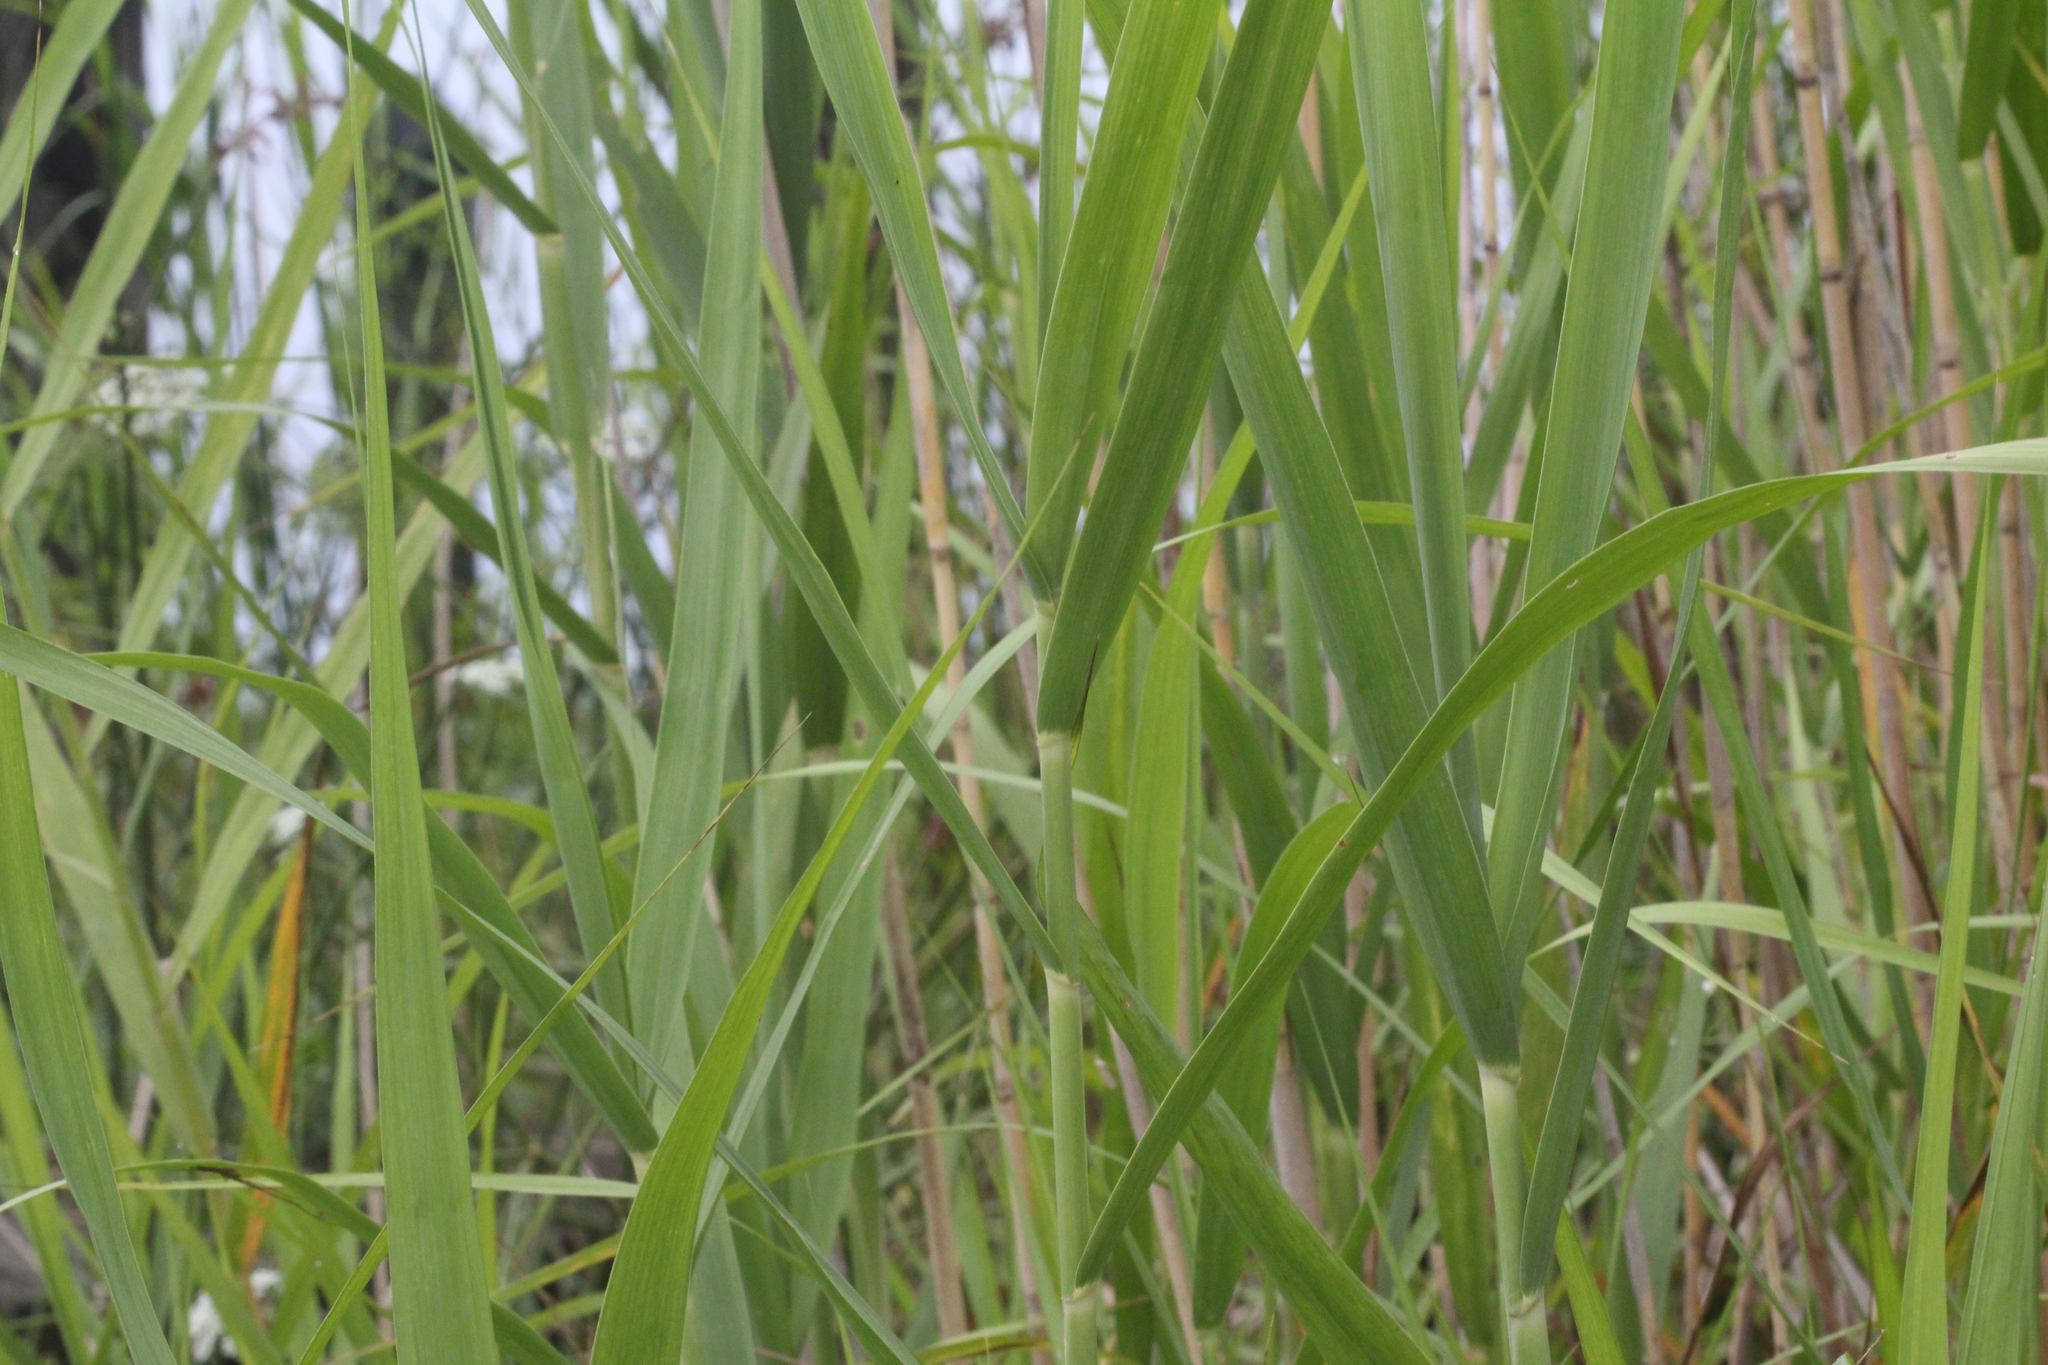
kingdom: Plantae
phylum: Tracheophyta
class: Liliopsida
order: Poales
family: Poaceae
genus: Phragmites
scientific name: Phragmites australis
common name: Common reed
